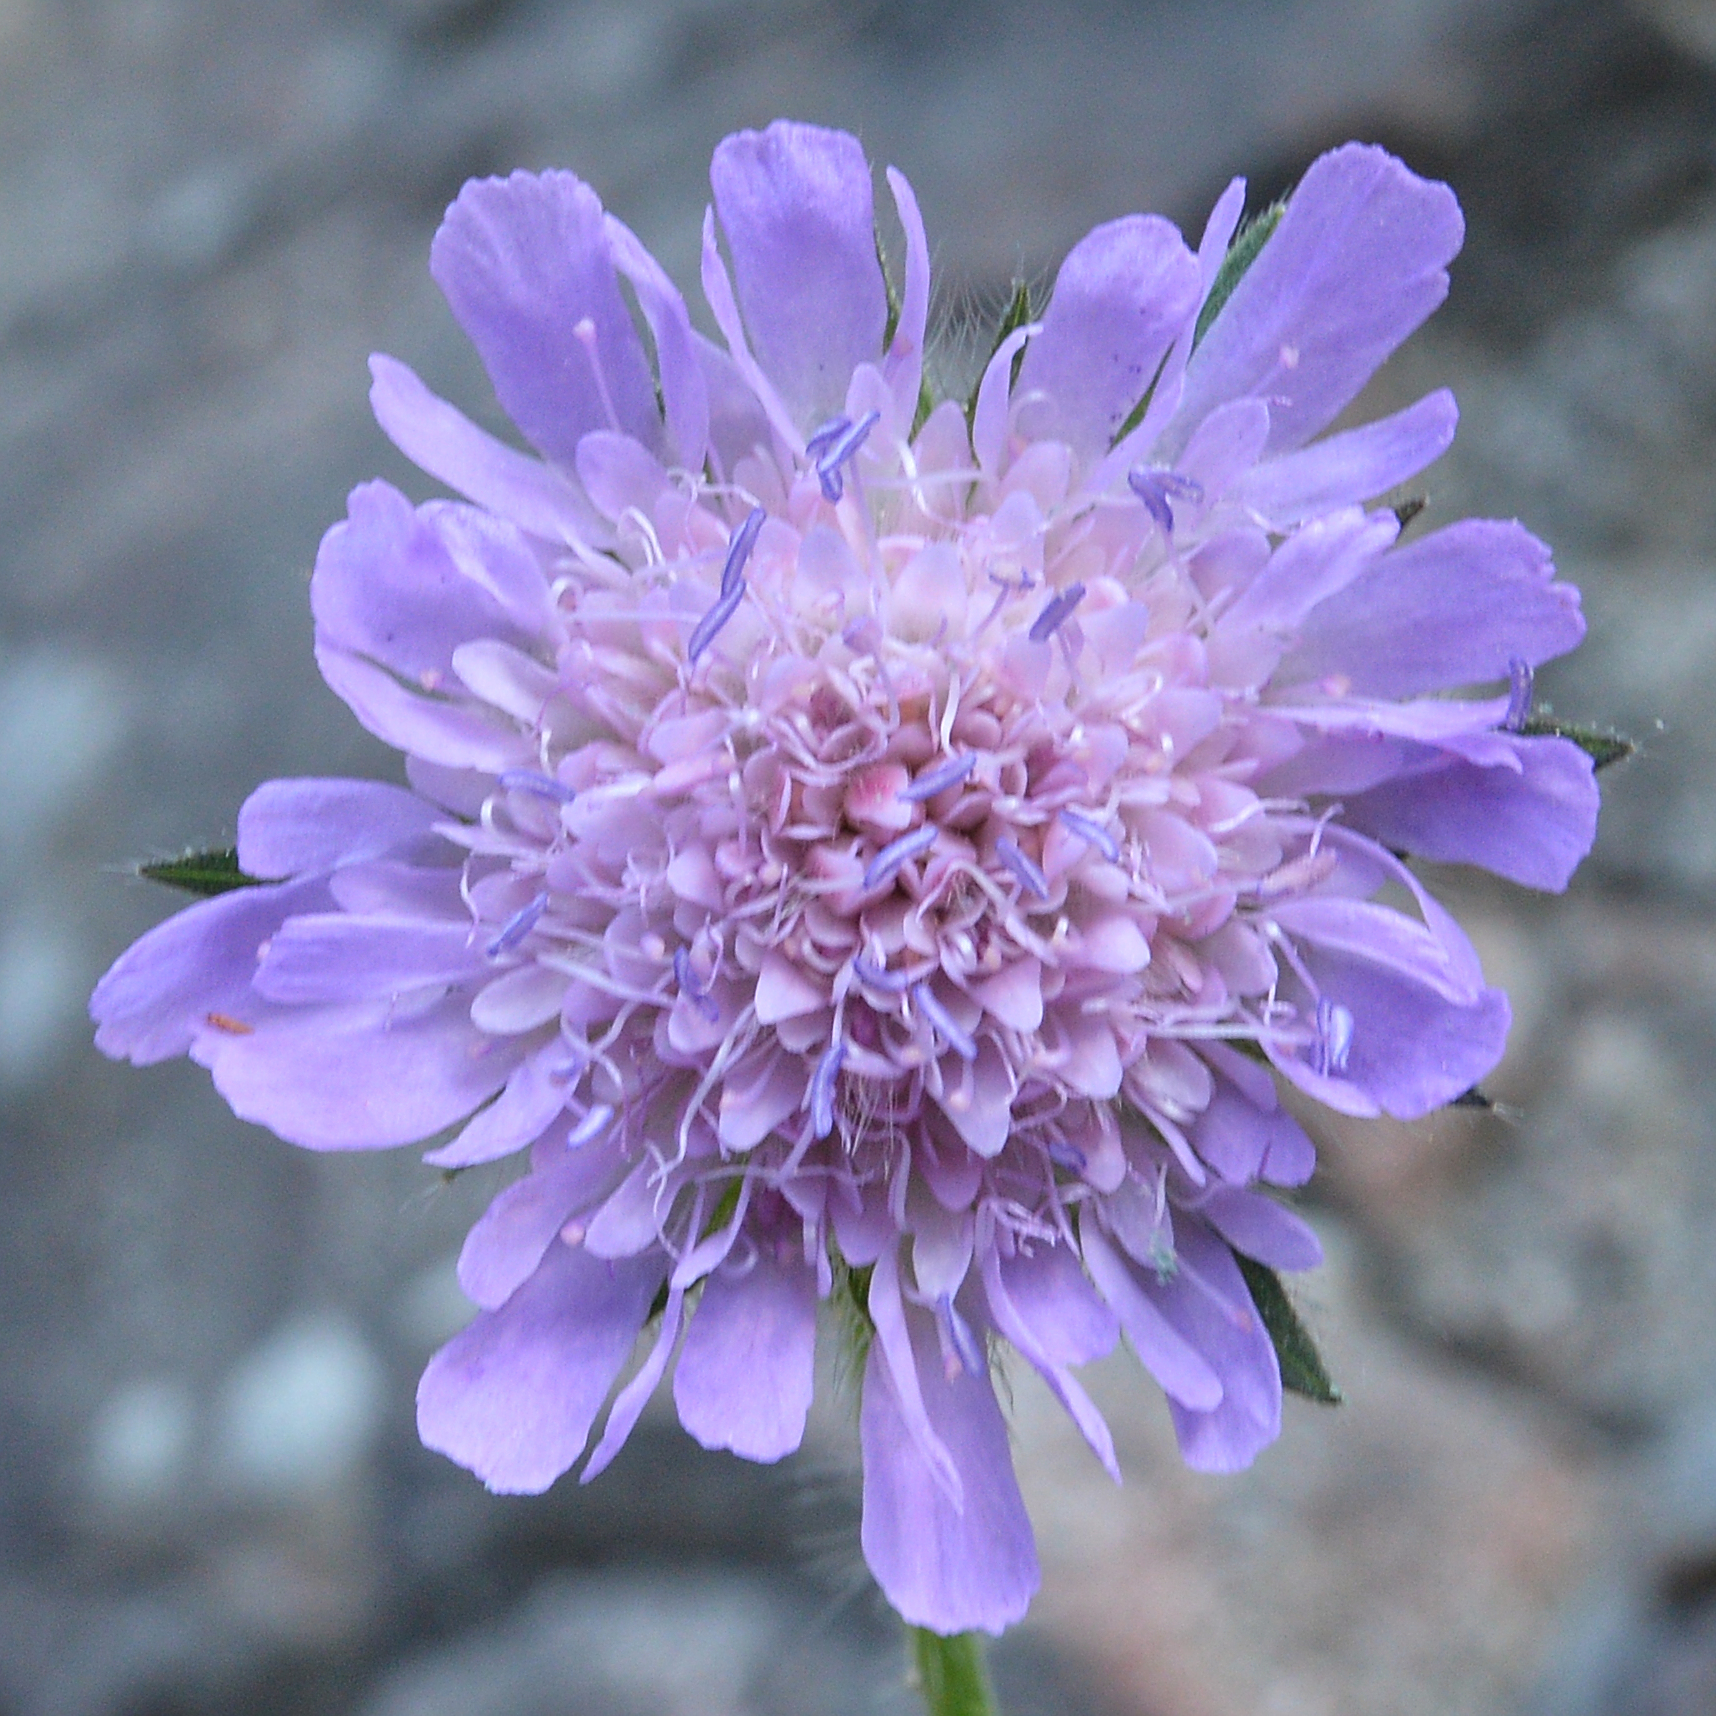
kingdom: Plantae
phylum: Tracheophyta
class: Magnoliopsida
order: Dipsacales
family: Caprifoliaceae
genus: Knautia
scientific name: Knautia arvensis
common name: Field scabiosa
